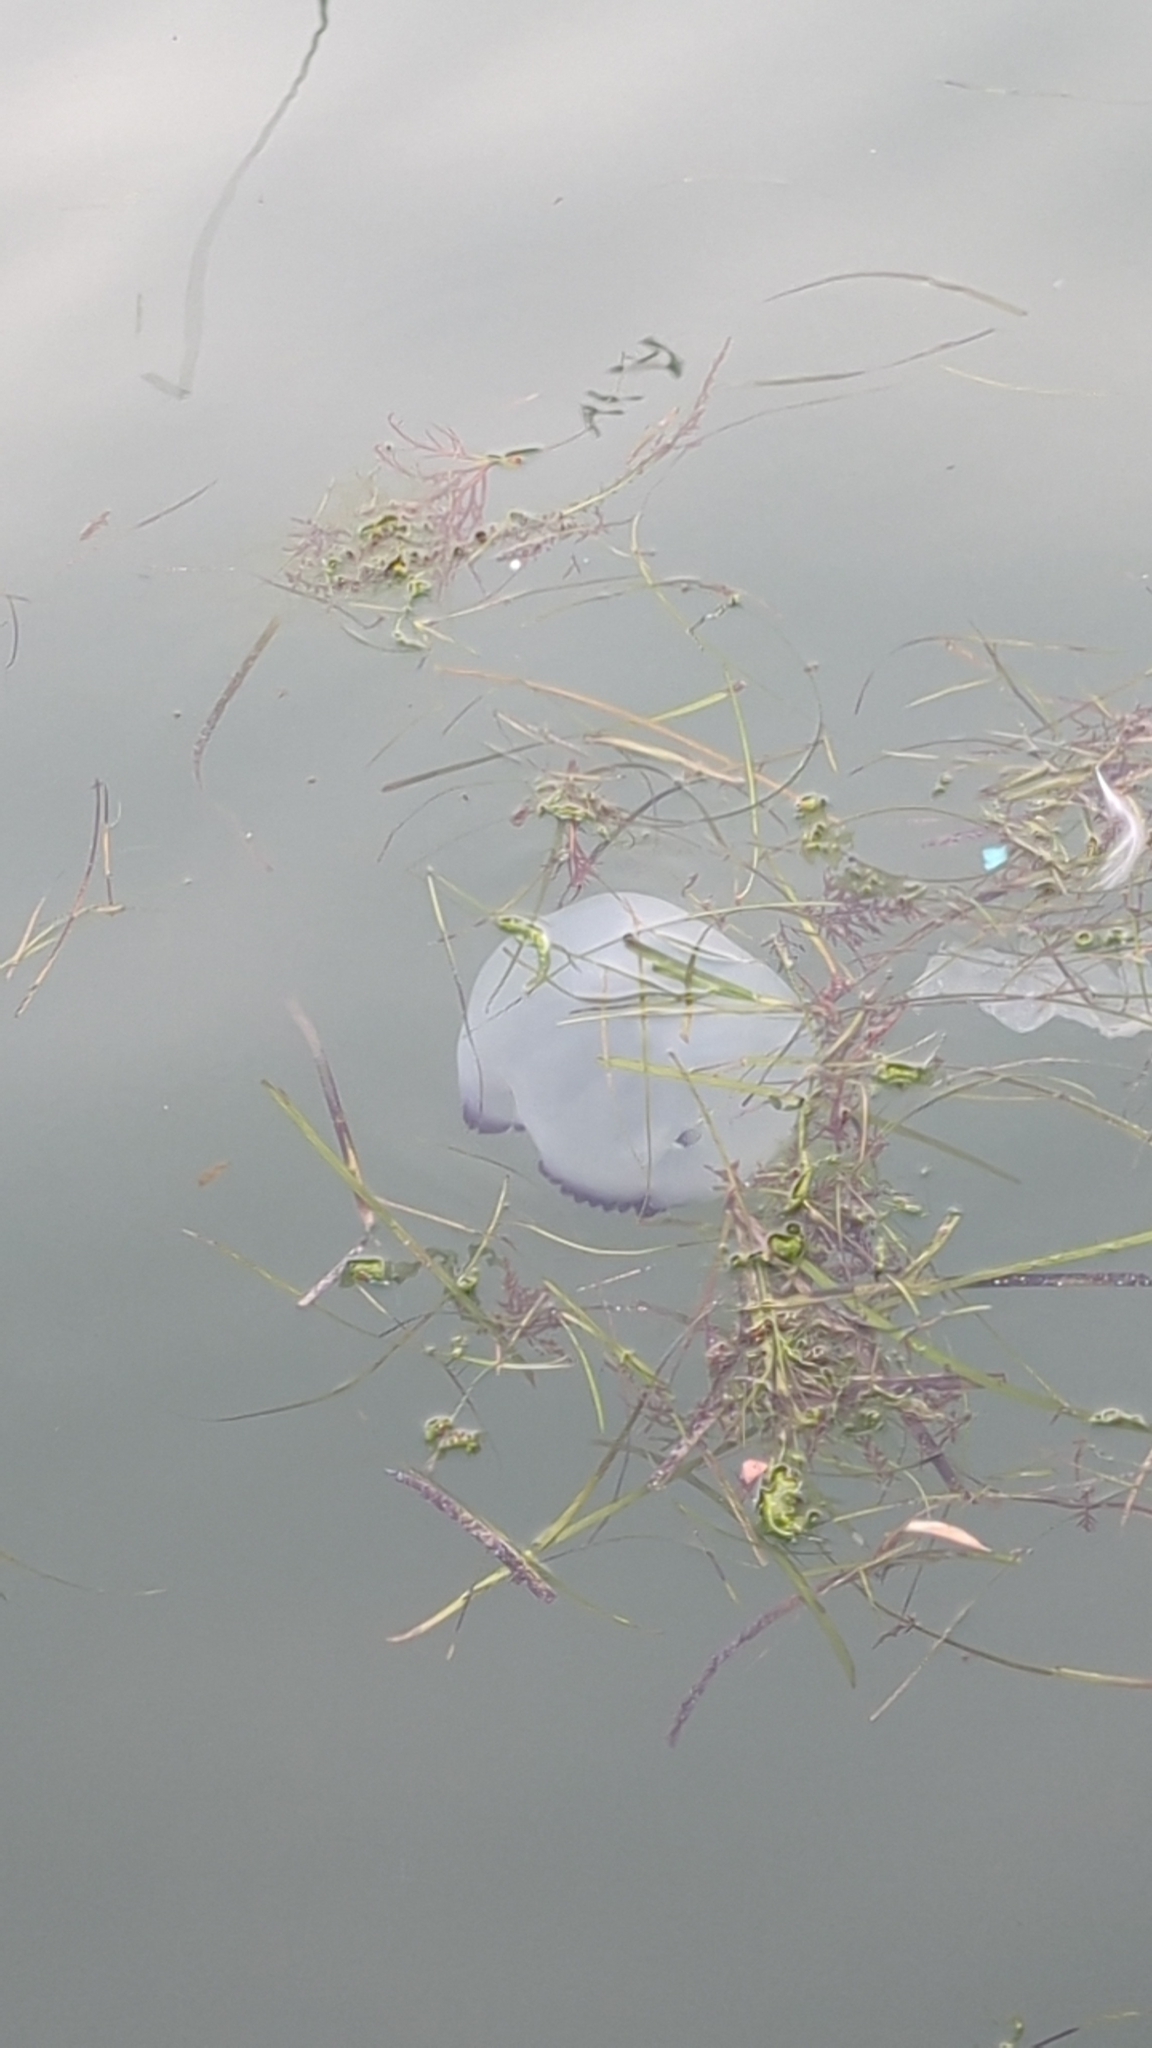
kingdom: Animalia
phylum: Cnidaria
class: Scyphozoa
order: Rhizostomeae
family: Rhizostomatidae
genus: Rhizostoma
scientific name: Rhizostoma pulmo
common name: Barrel jellyfish
